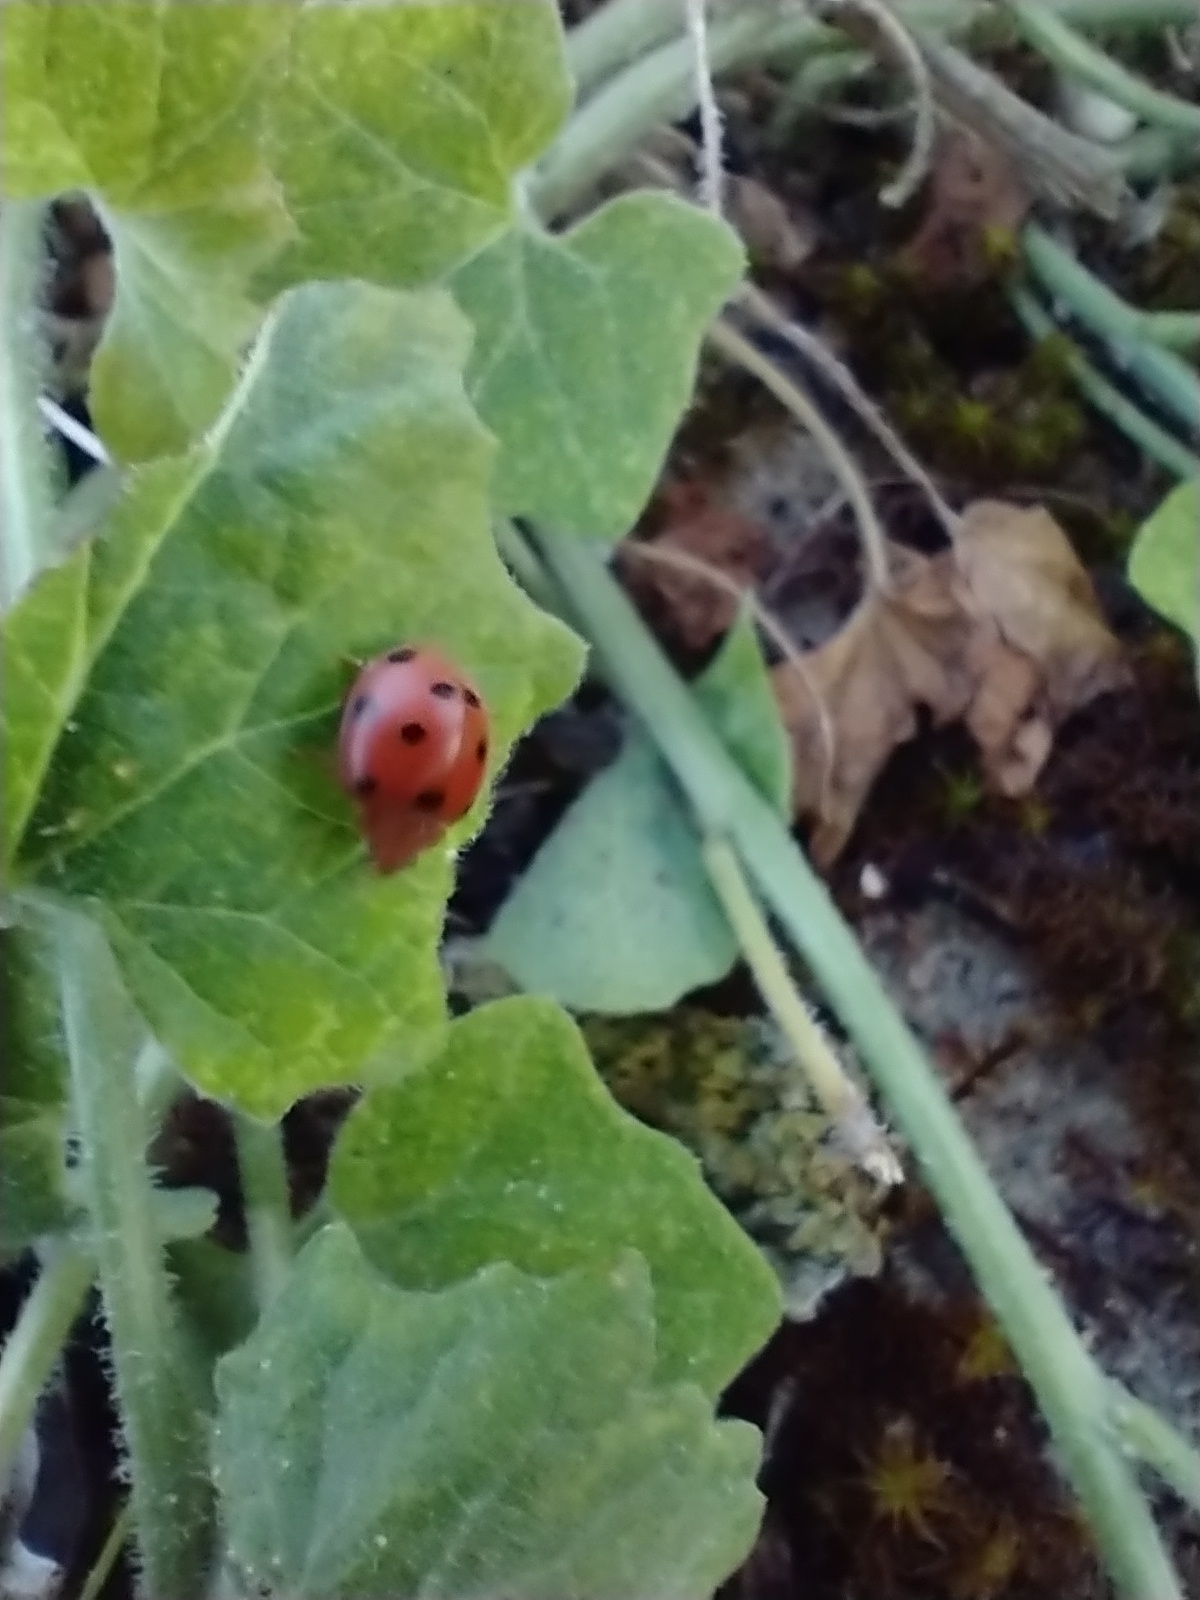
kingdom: Animalia
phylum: Arthropoda
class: Insecta
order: Coleoptera
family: Coccinellidae
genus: Henosepilachna
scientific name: Henosepilachna argus
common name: Bryony ladybird
